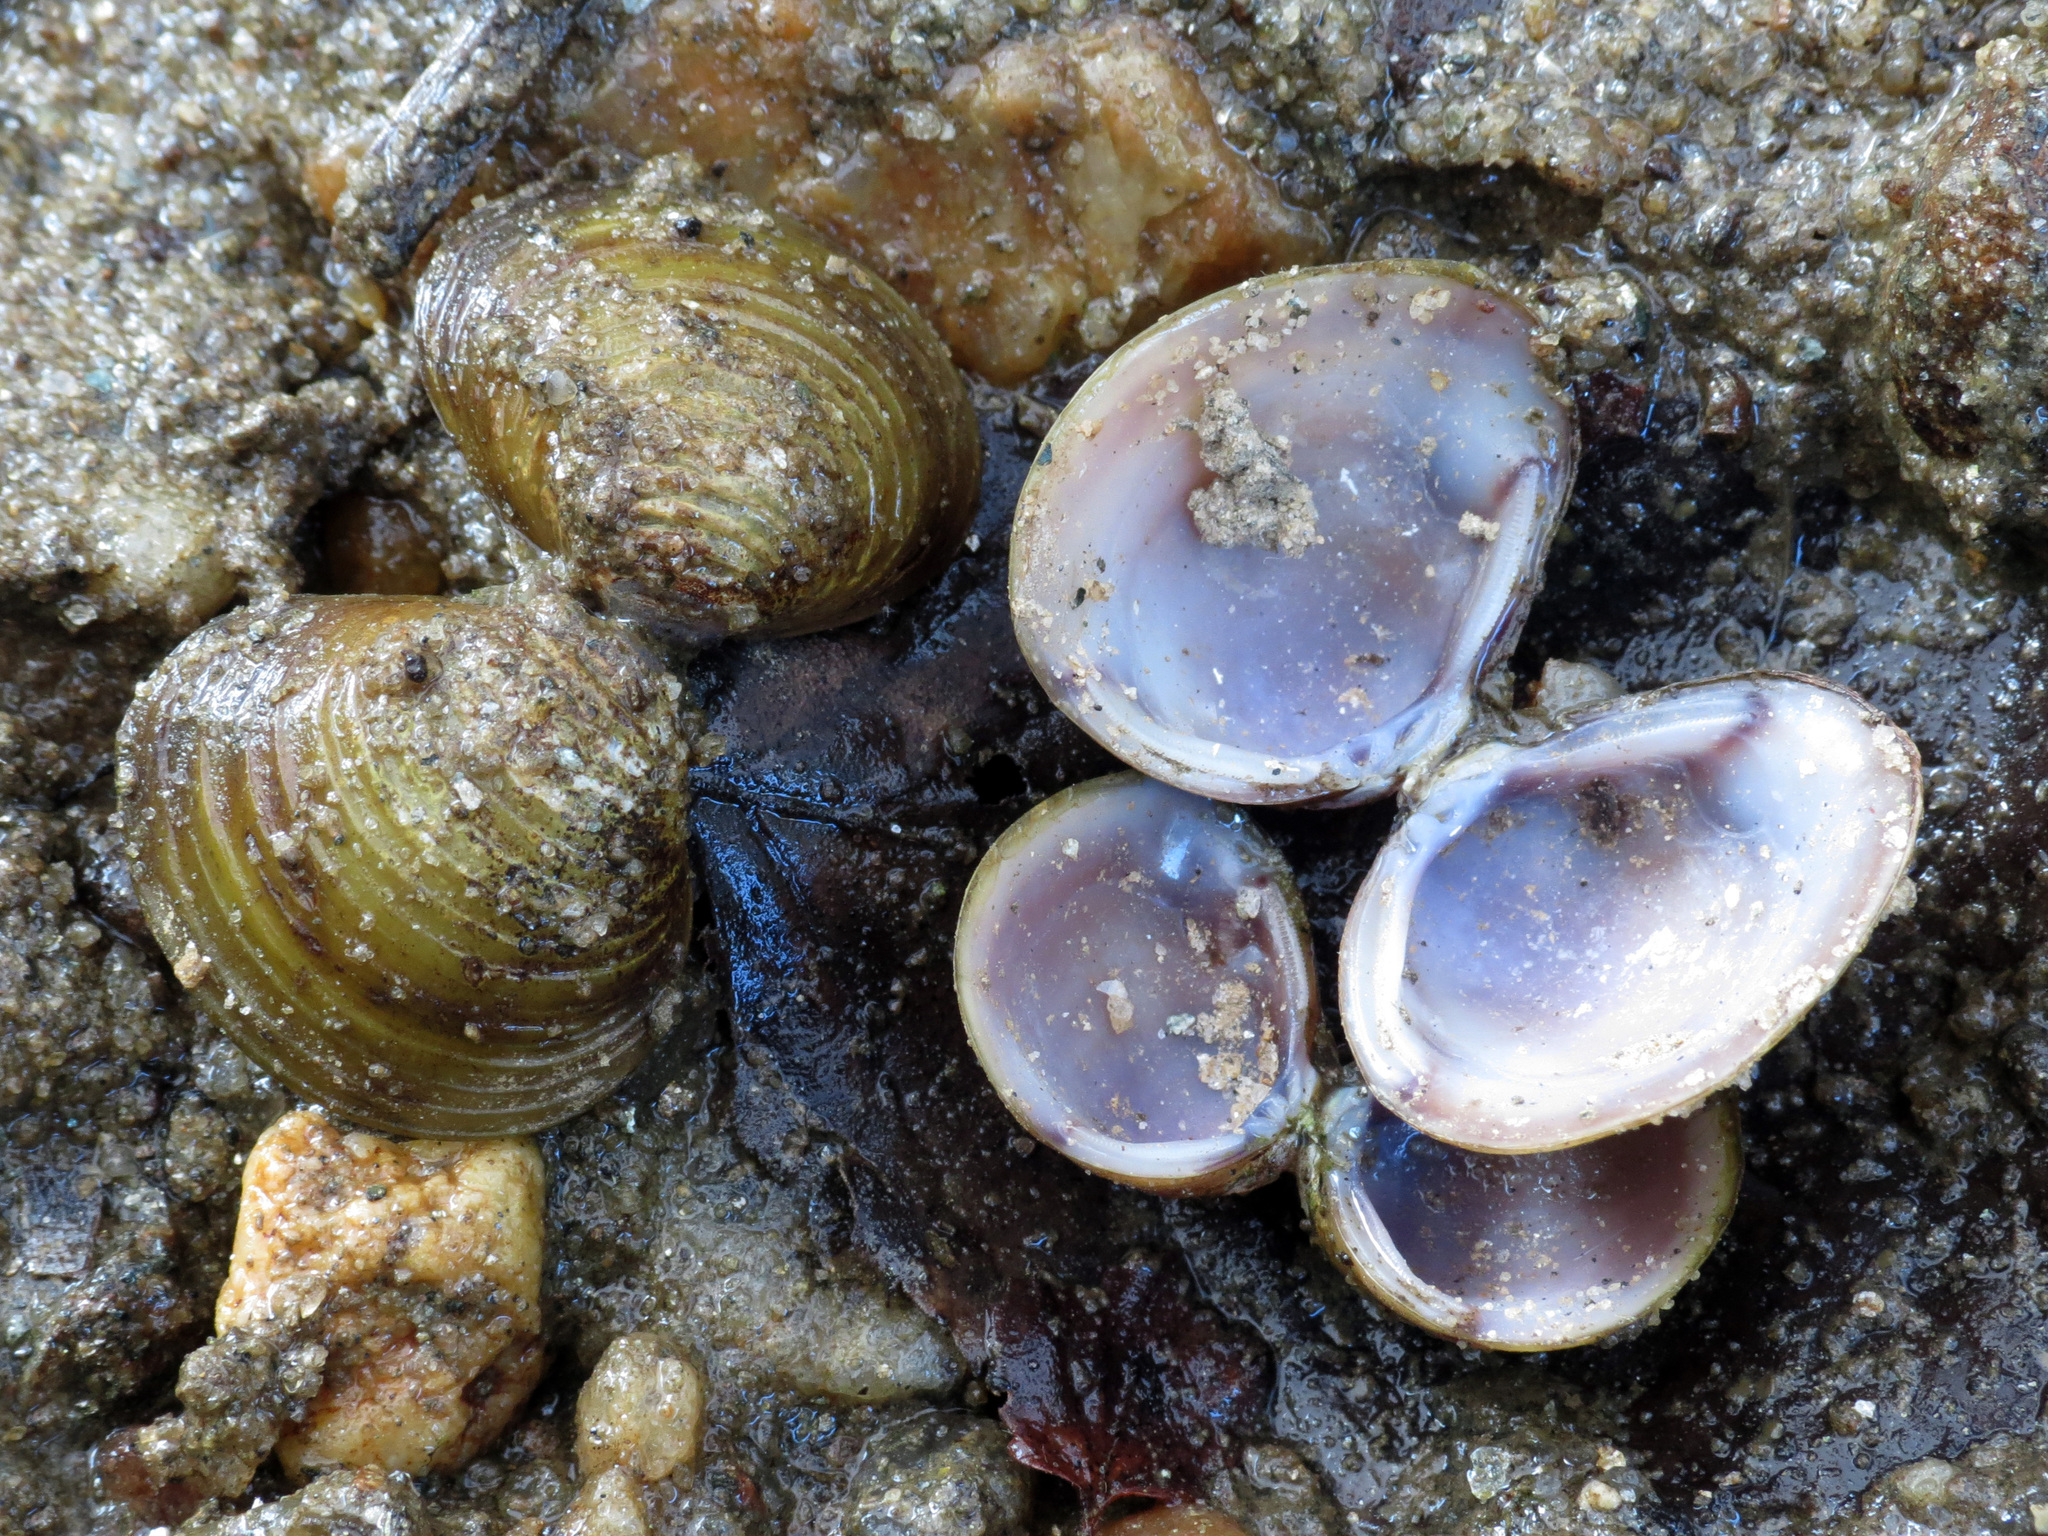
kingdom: Animalia
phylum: Mollusca
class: Bivalvia
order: Venerida
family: Cyrenidae
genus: Corbicula
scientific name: Corbicula fluminea
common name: Asian clam
